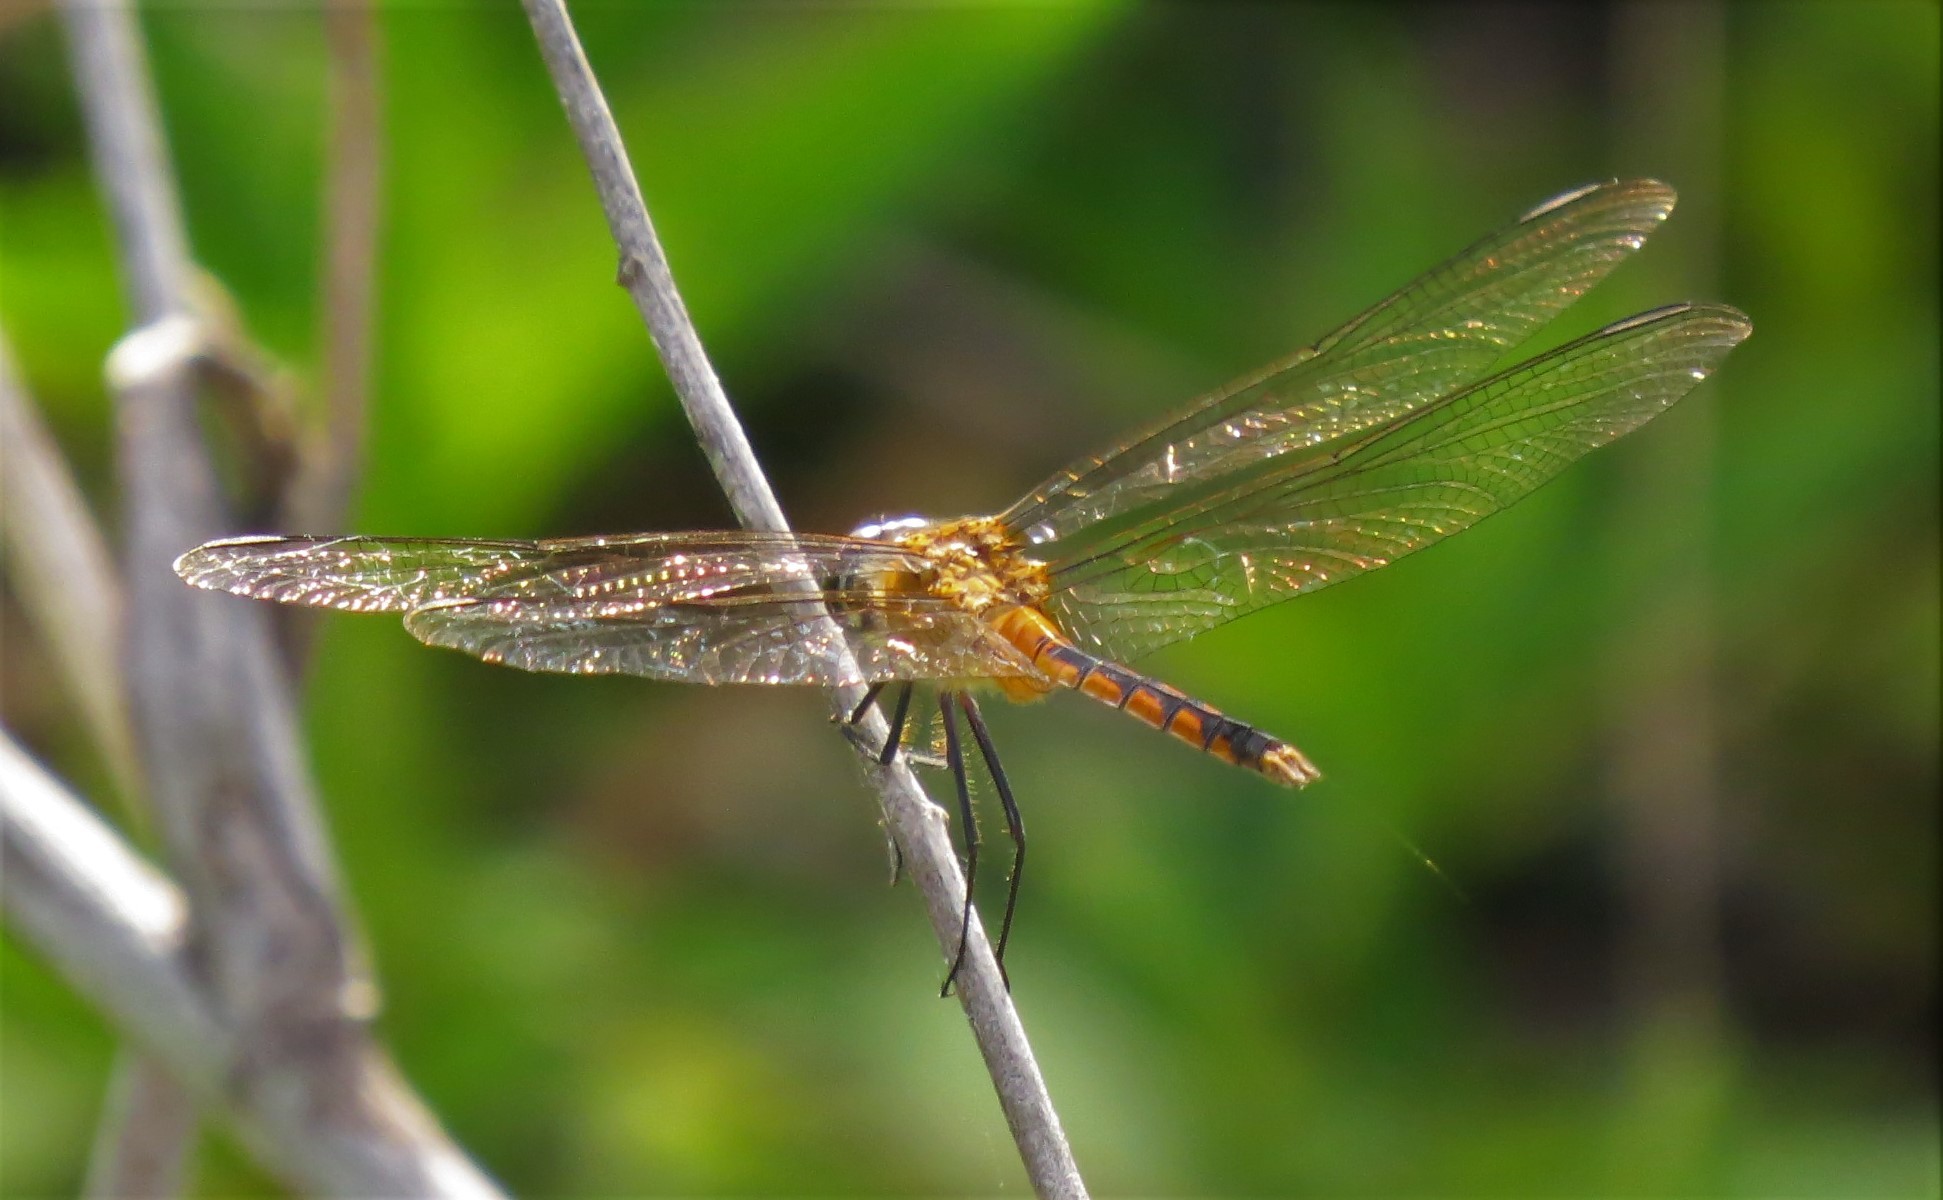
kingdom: Animalia
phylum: Arthropoda
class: Insecta
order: Odonata
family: Libellulidae
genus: Brachymesia
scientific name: Brachymesia herbida
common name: Tawny pennant
